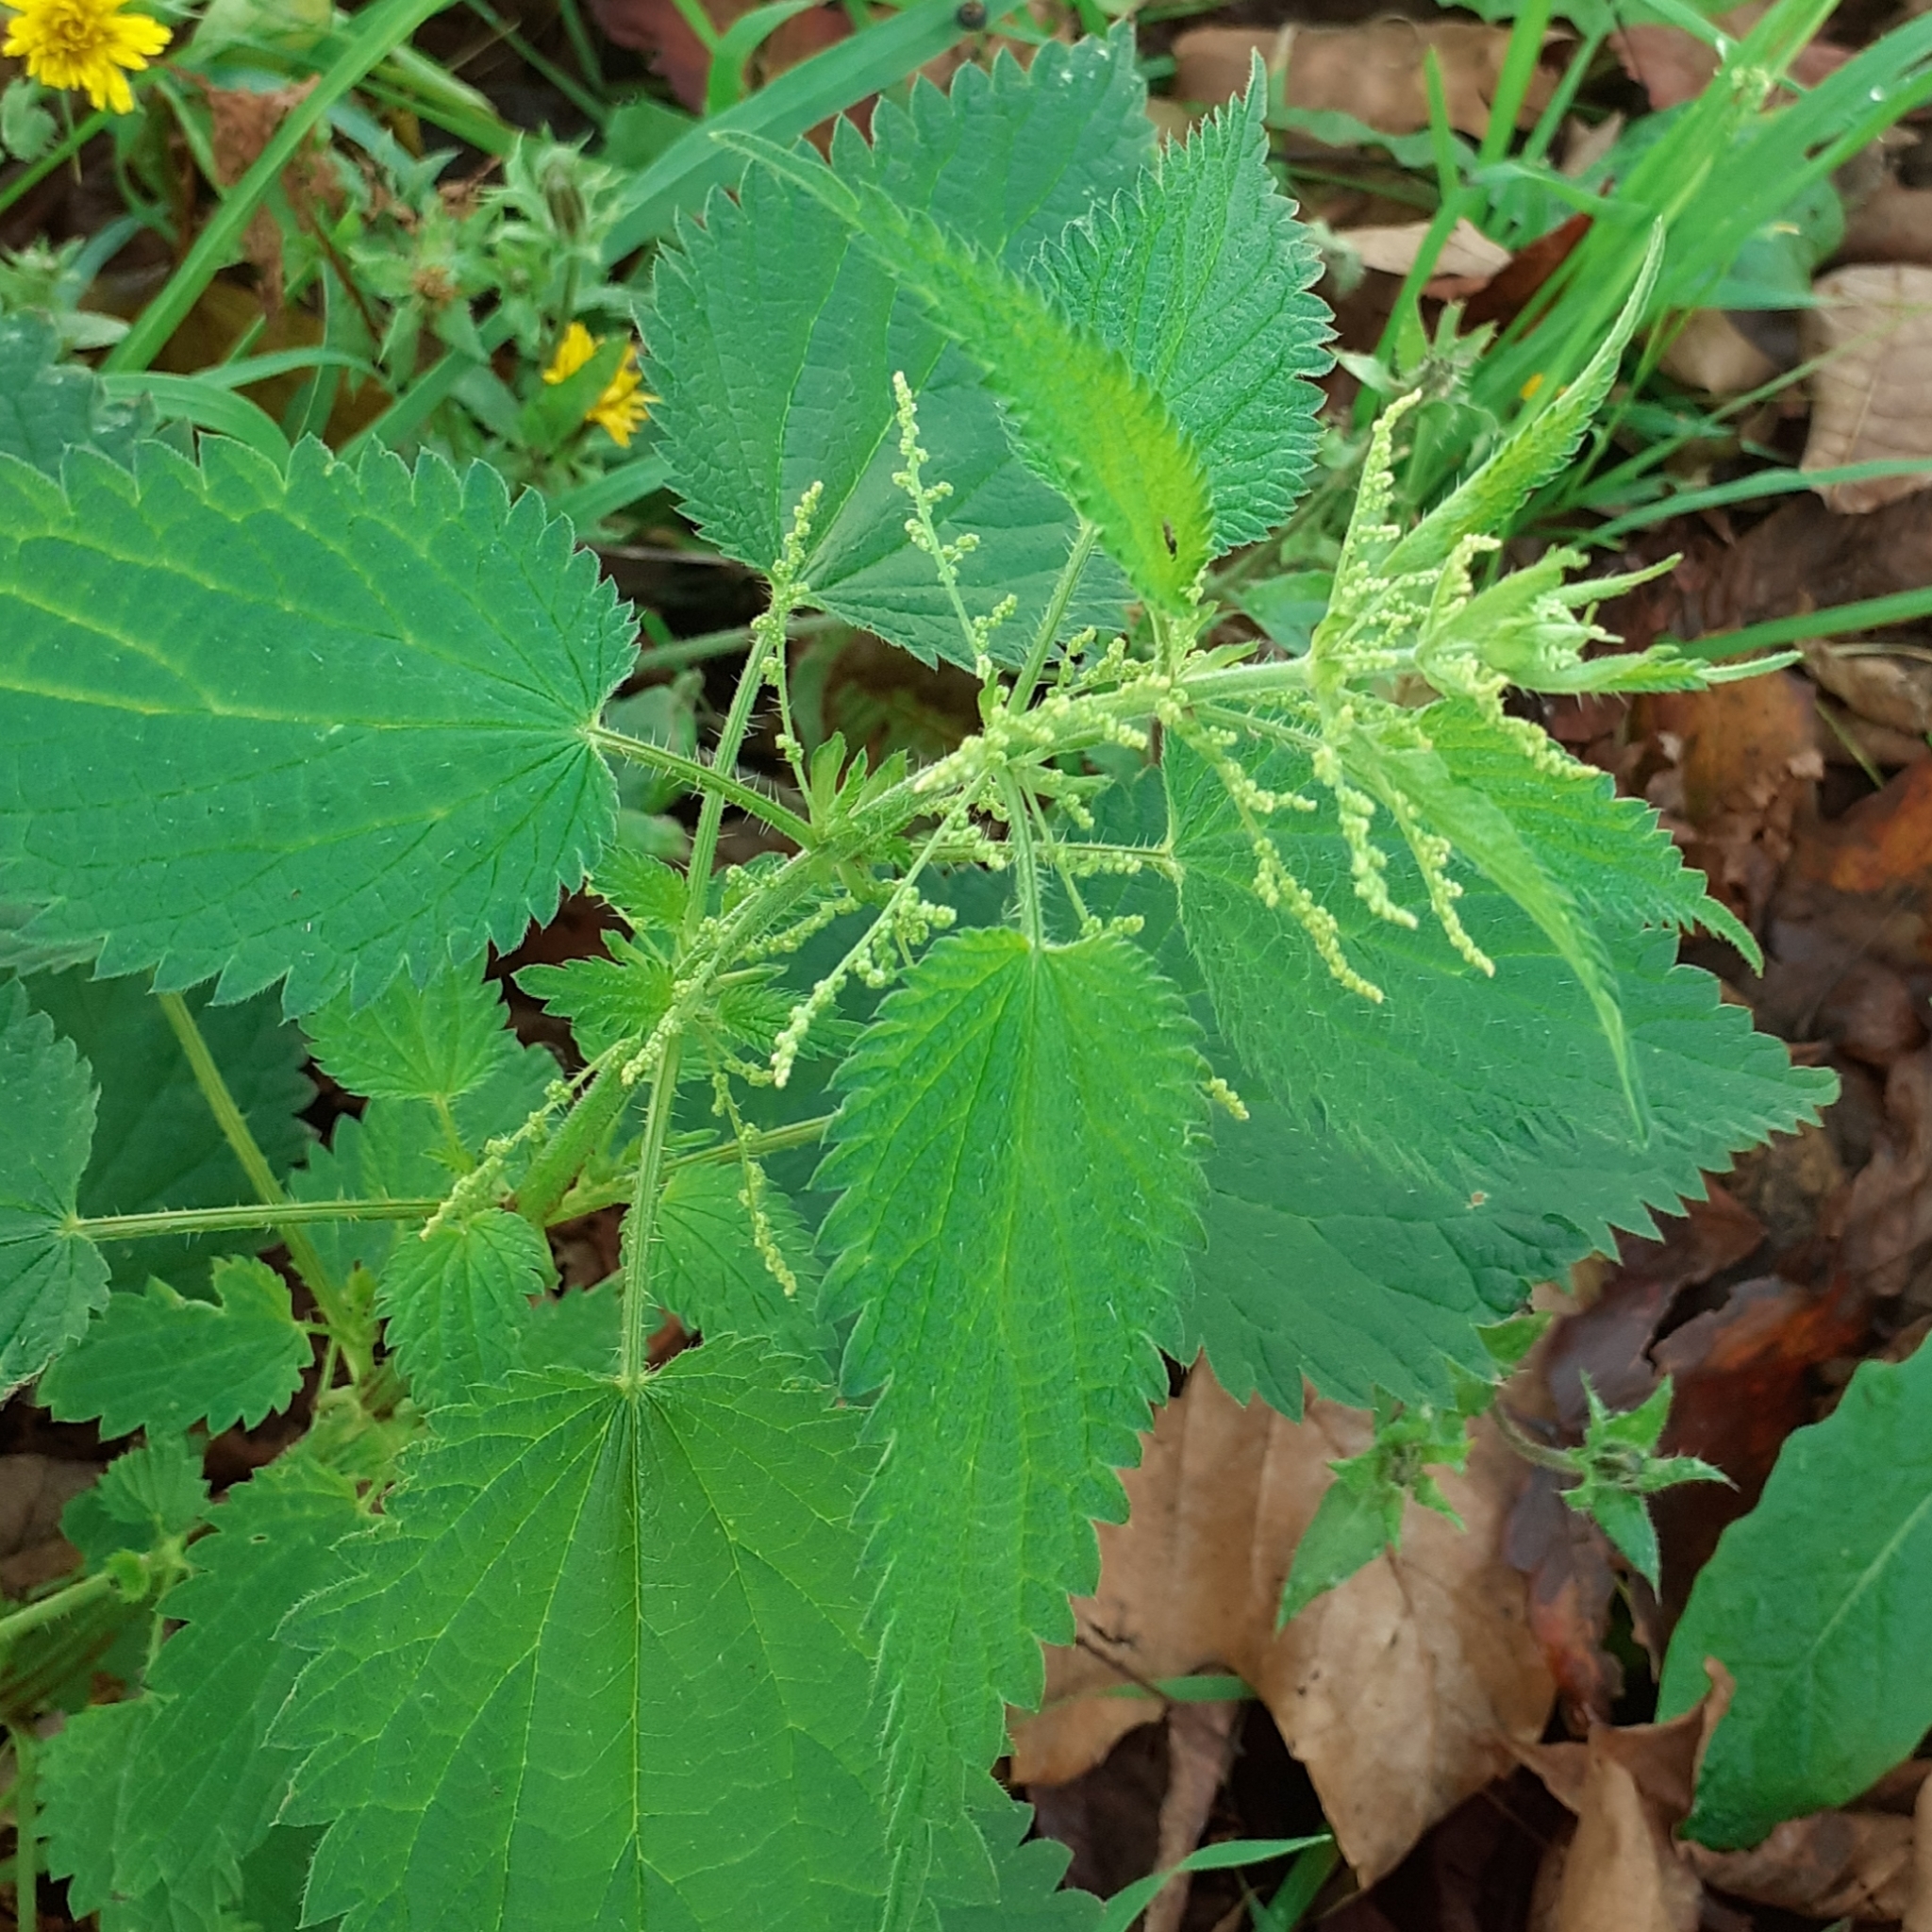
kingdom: Plantae
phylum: Tracheophyta
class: Magnoliopsida
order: Rosales
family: Urticaceae
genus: Urtica
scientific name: Urtica dioica
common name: Common nettle
